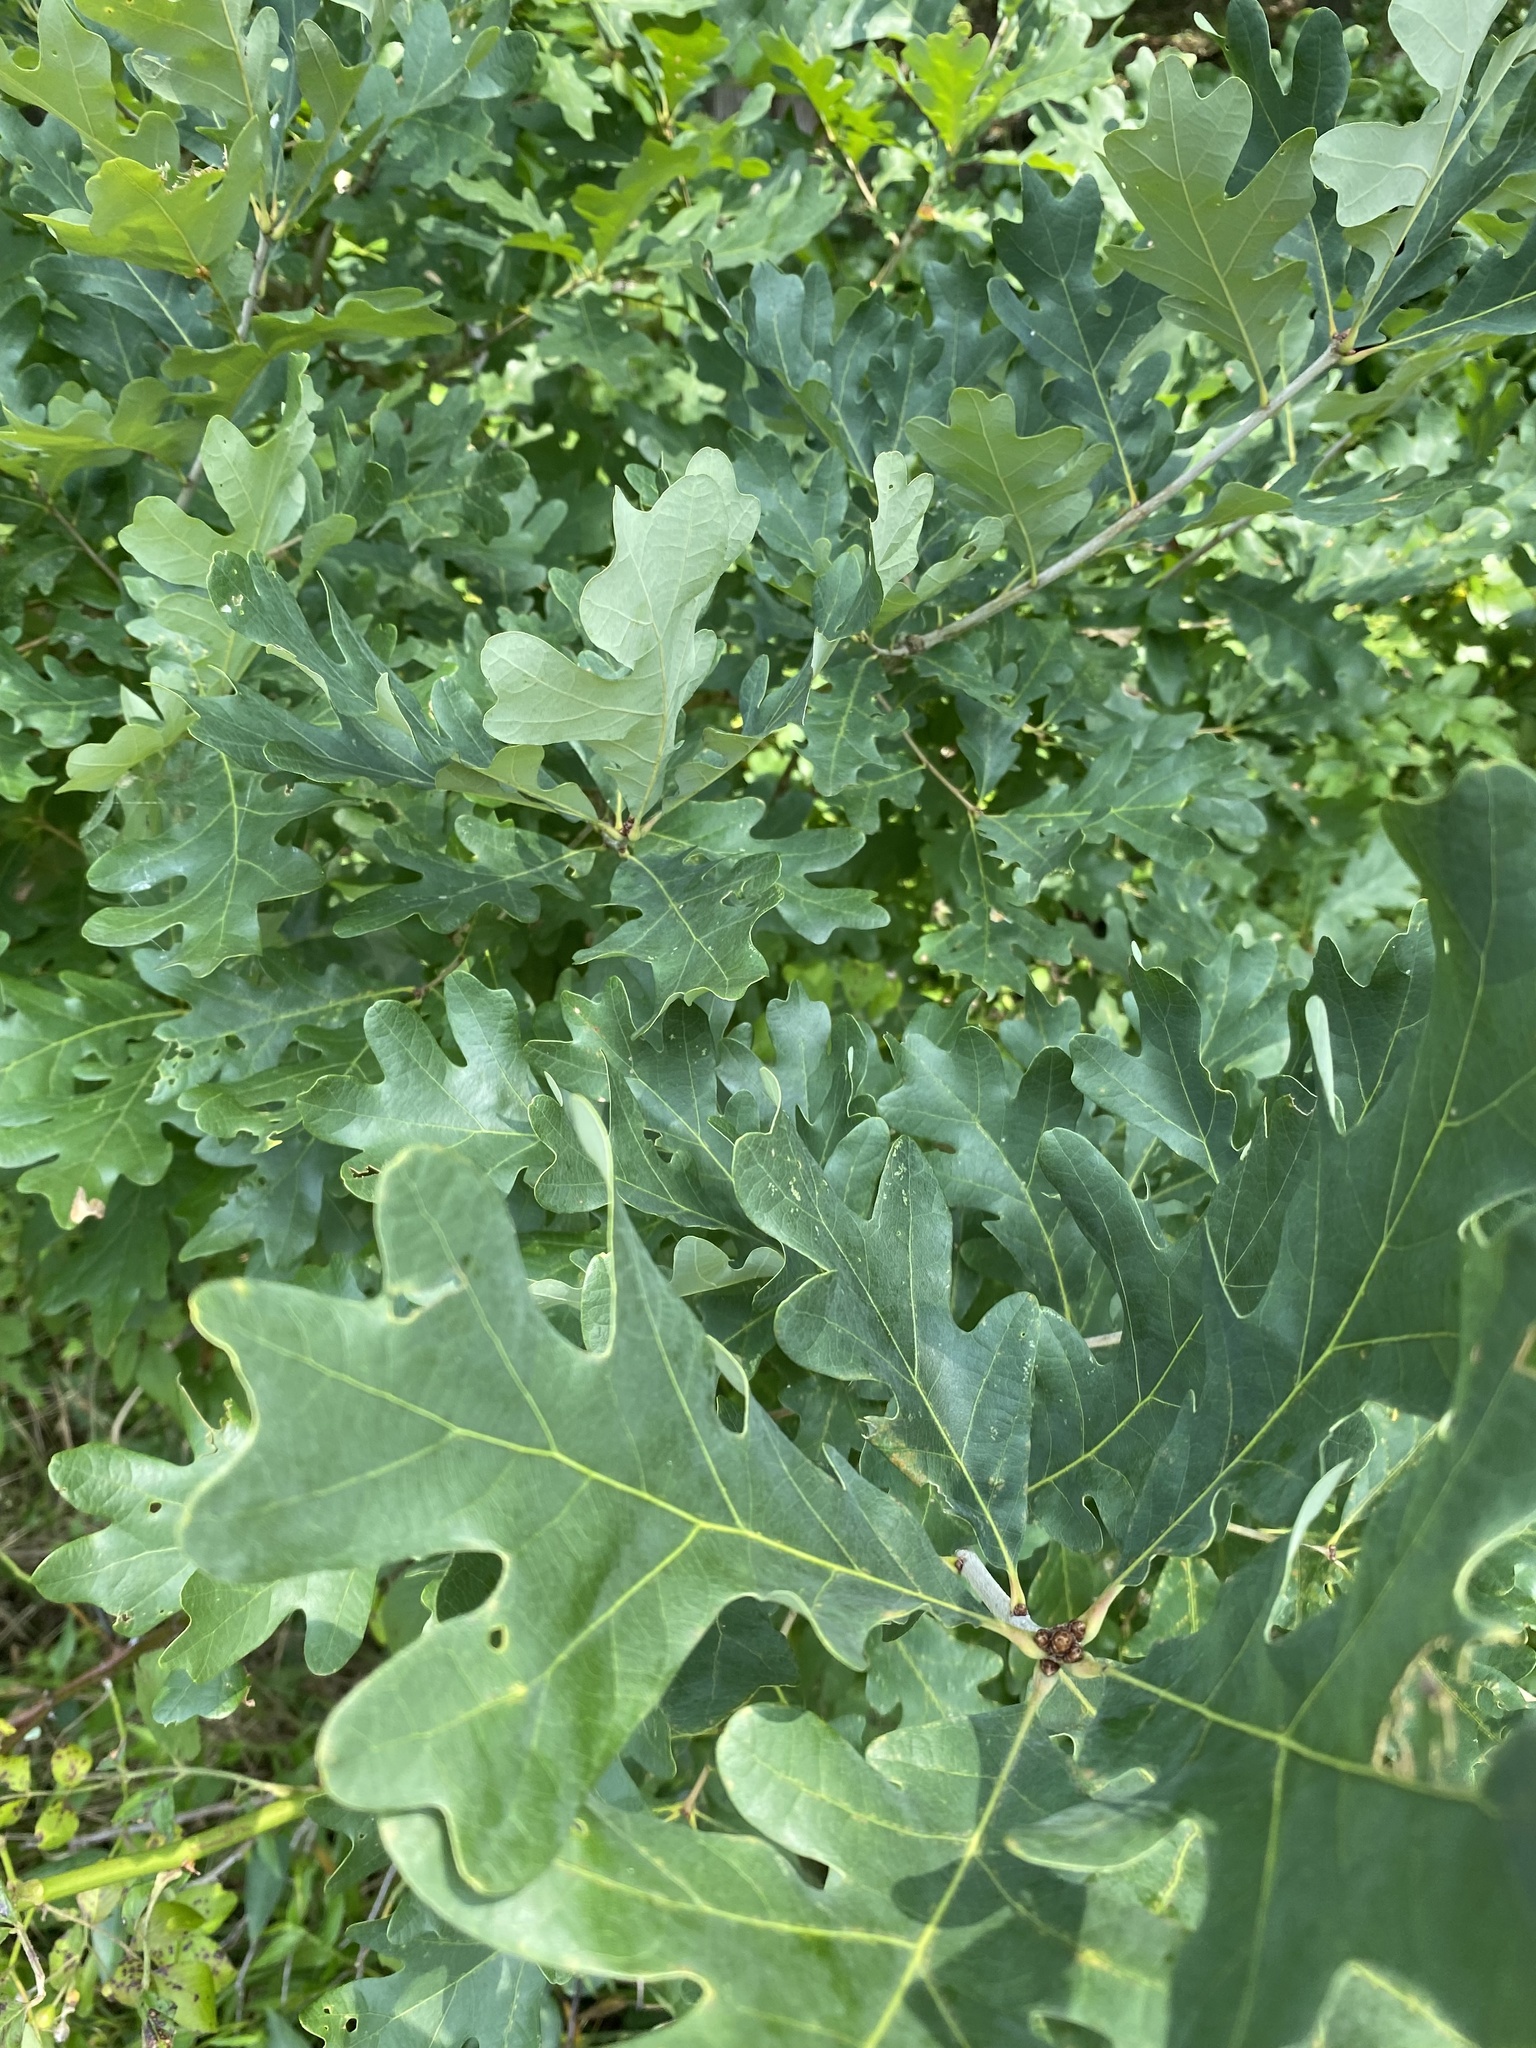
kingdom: Plantae
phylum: Tracheophyta
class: Magnoliopsida
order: Fagales
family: Fagaceae
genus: Quercus
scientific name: Quercus alba
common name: White oak
